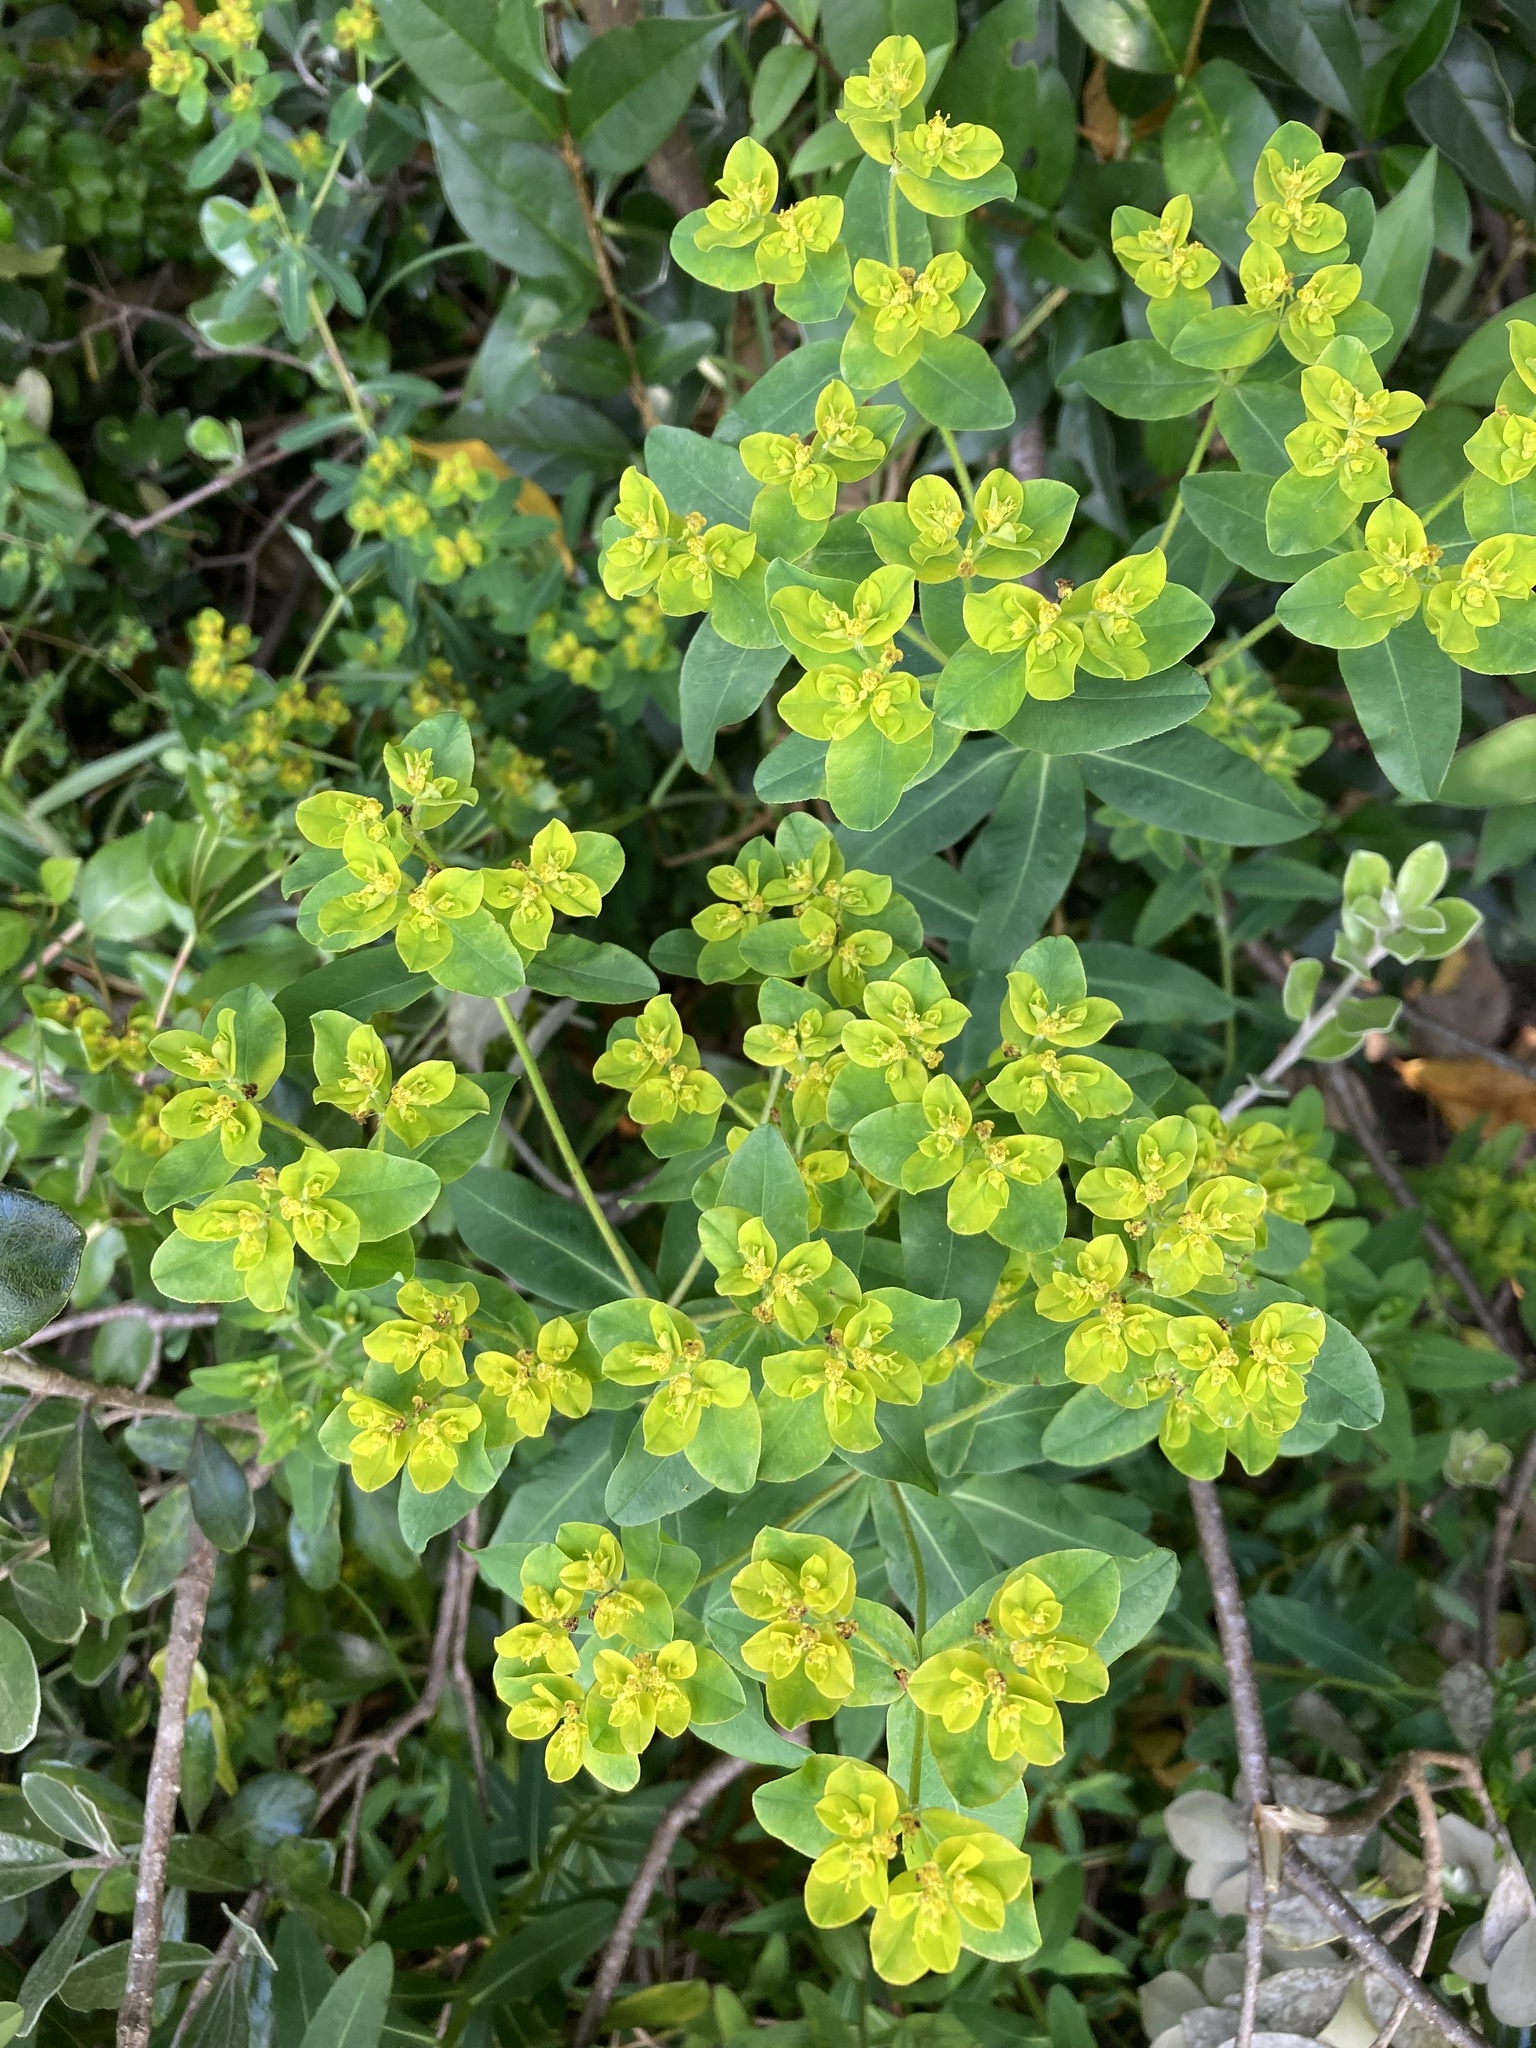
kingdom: Plantae
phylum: Tracheophyta
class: Magnoliopsida
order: Malpighiales
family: Euphorbiaceae
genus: Euphorbia
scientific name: Euphorbia oblongata
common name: Balkan spurge
